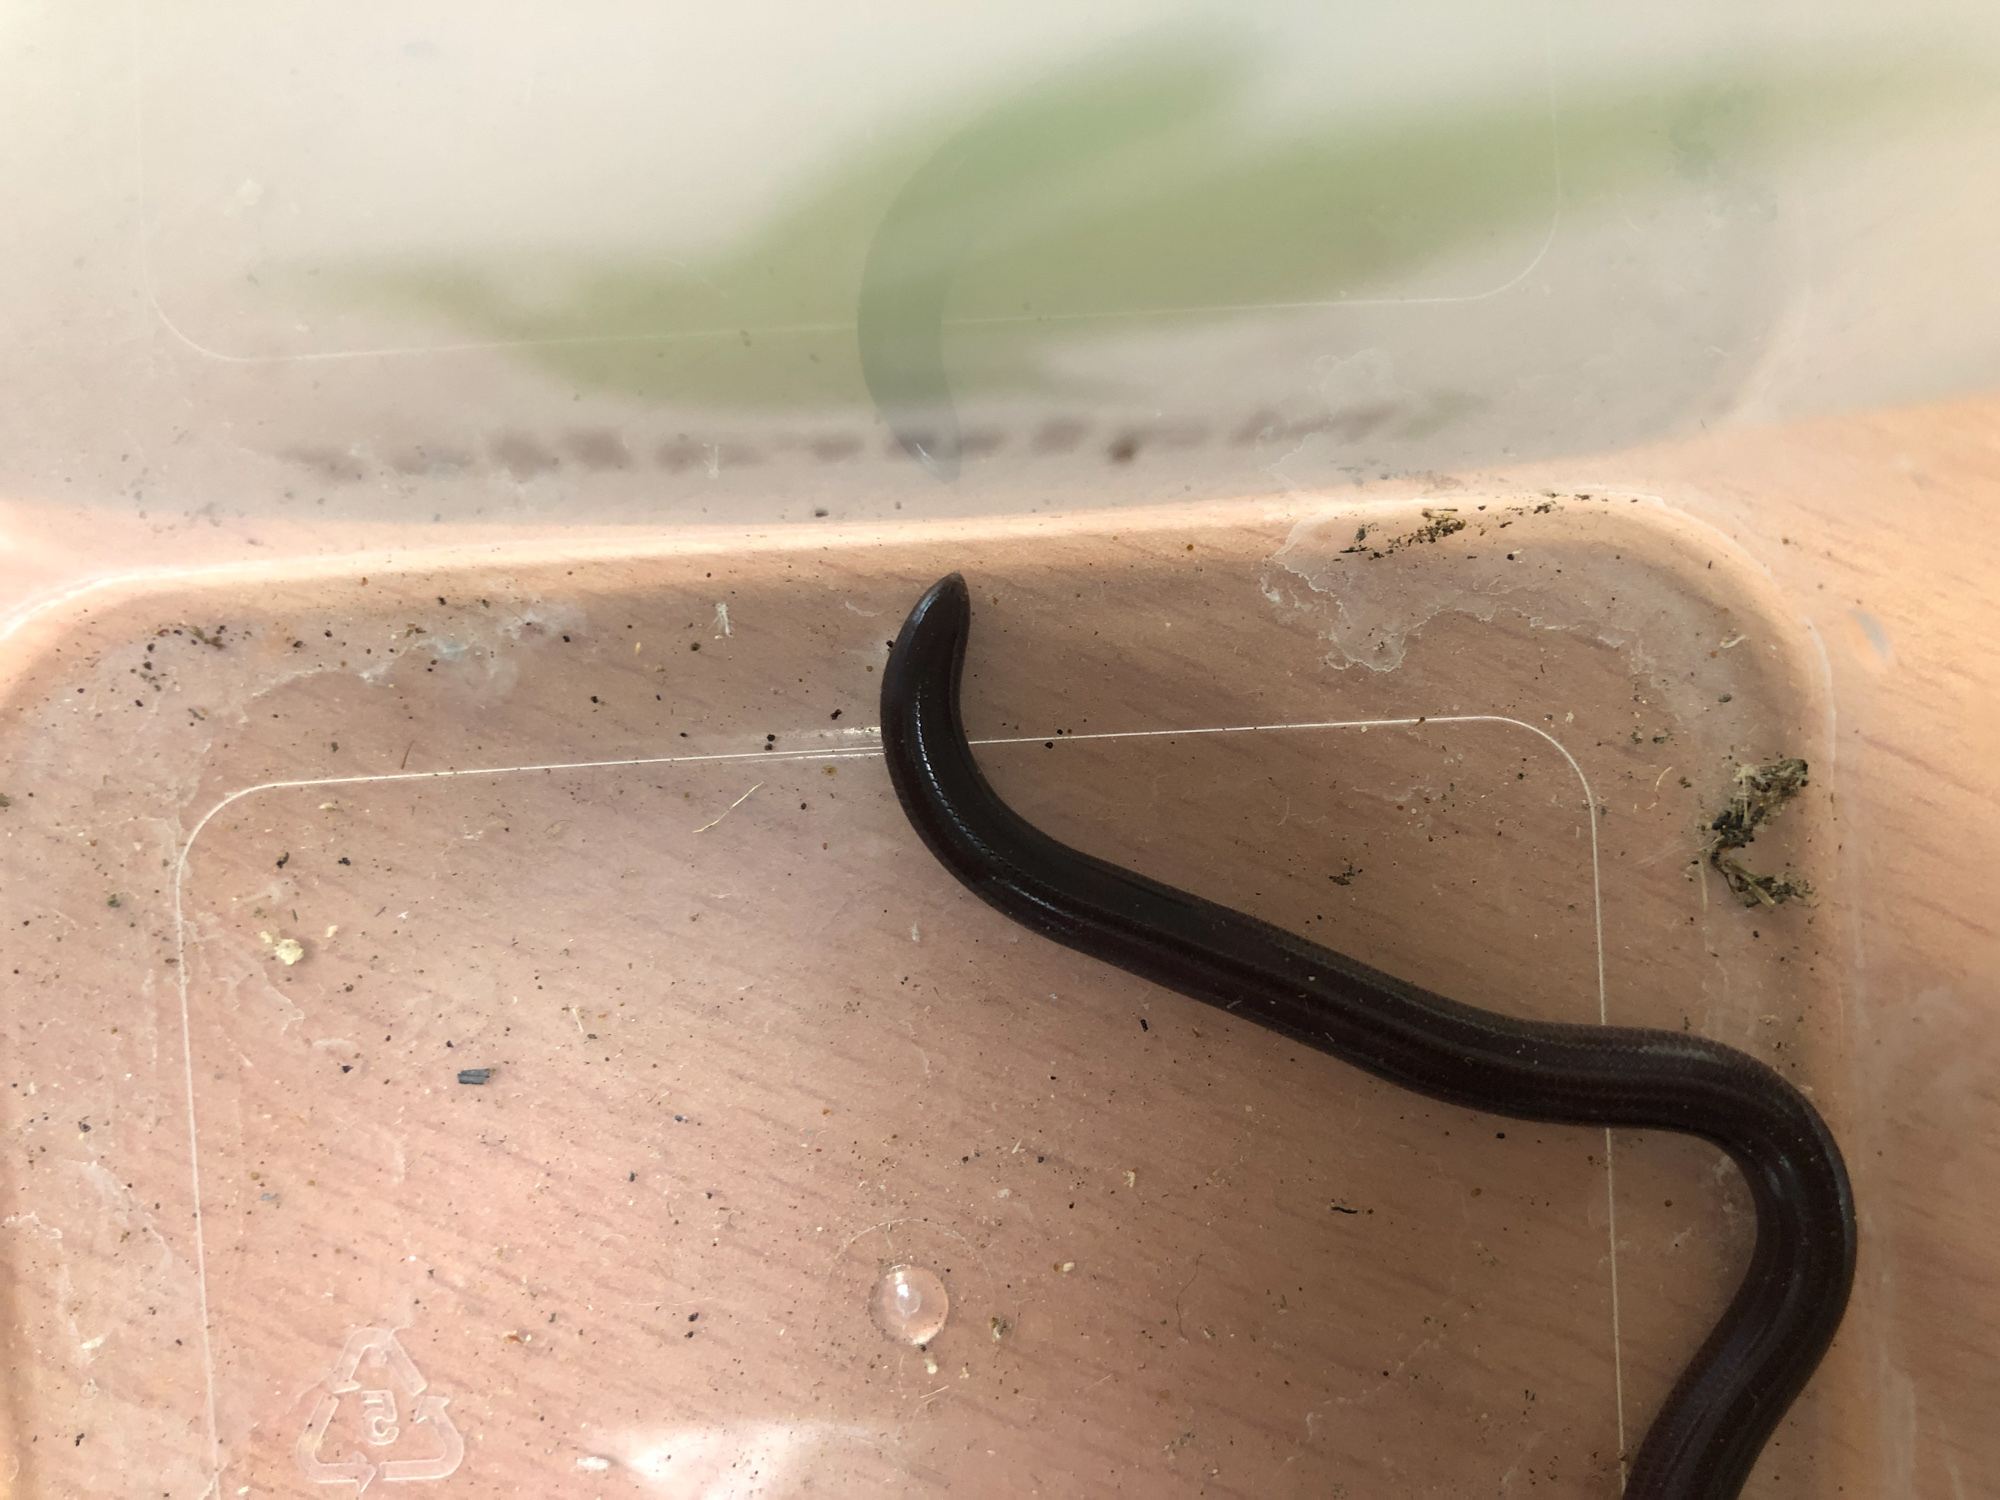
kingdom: Animalia
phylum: Chordata
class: Squamata
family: Typhlopidae
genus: Indotyphlops
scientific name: Indotyphlops braminus
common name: Brahminy blindsnake
